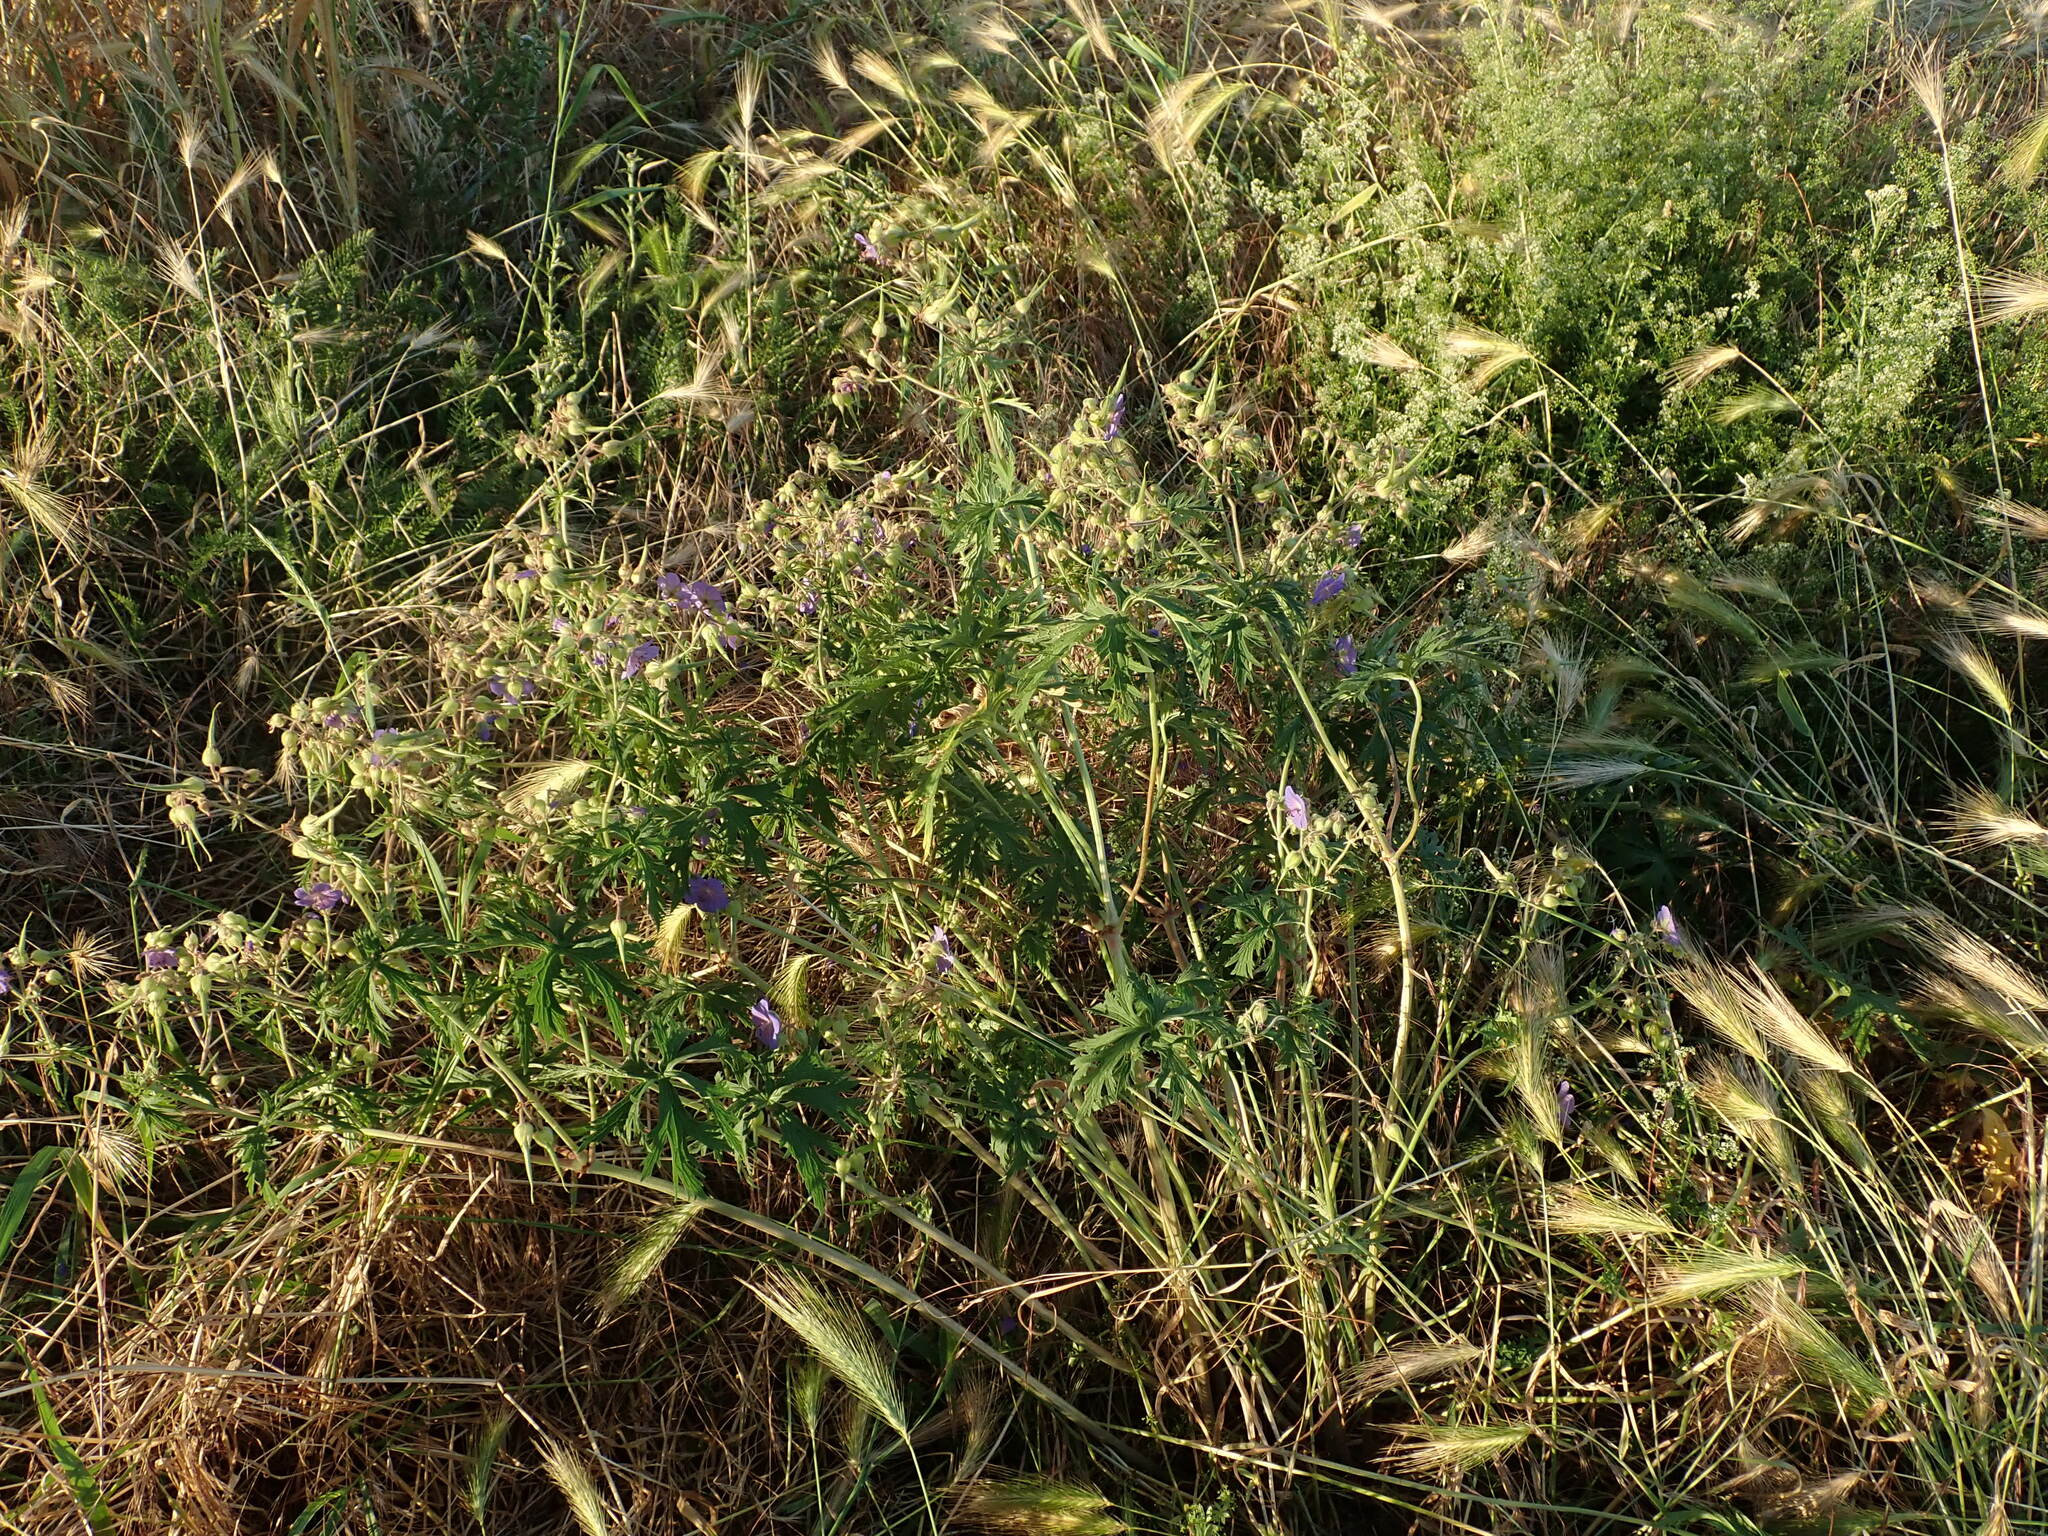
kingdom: Plantae
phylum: Tracheophyta
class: Magnoliopsida
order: Geraniales
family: Geraniaceae
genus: Geranium
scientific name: Geranium pratense
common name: Meadow crane's-bill
